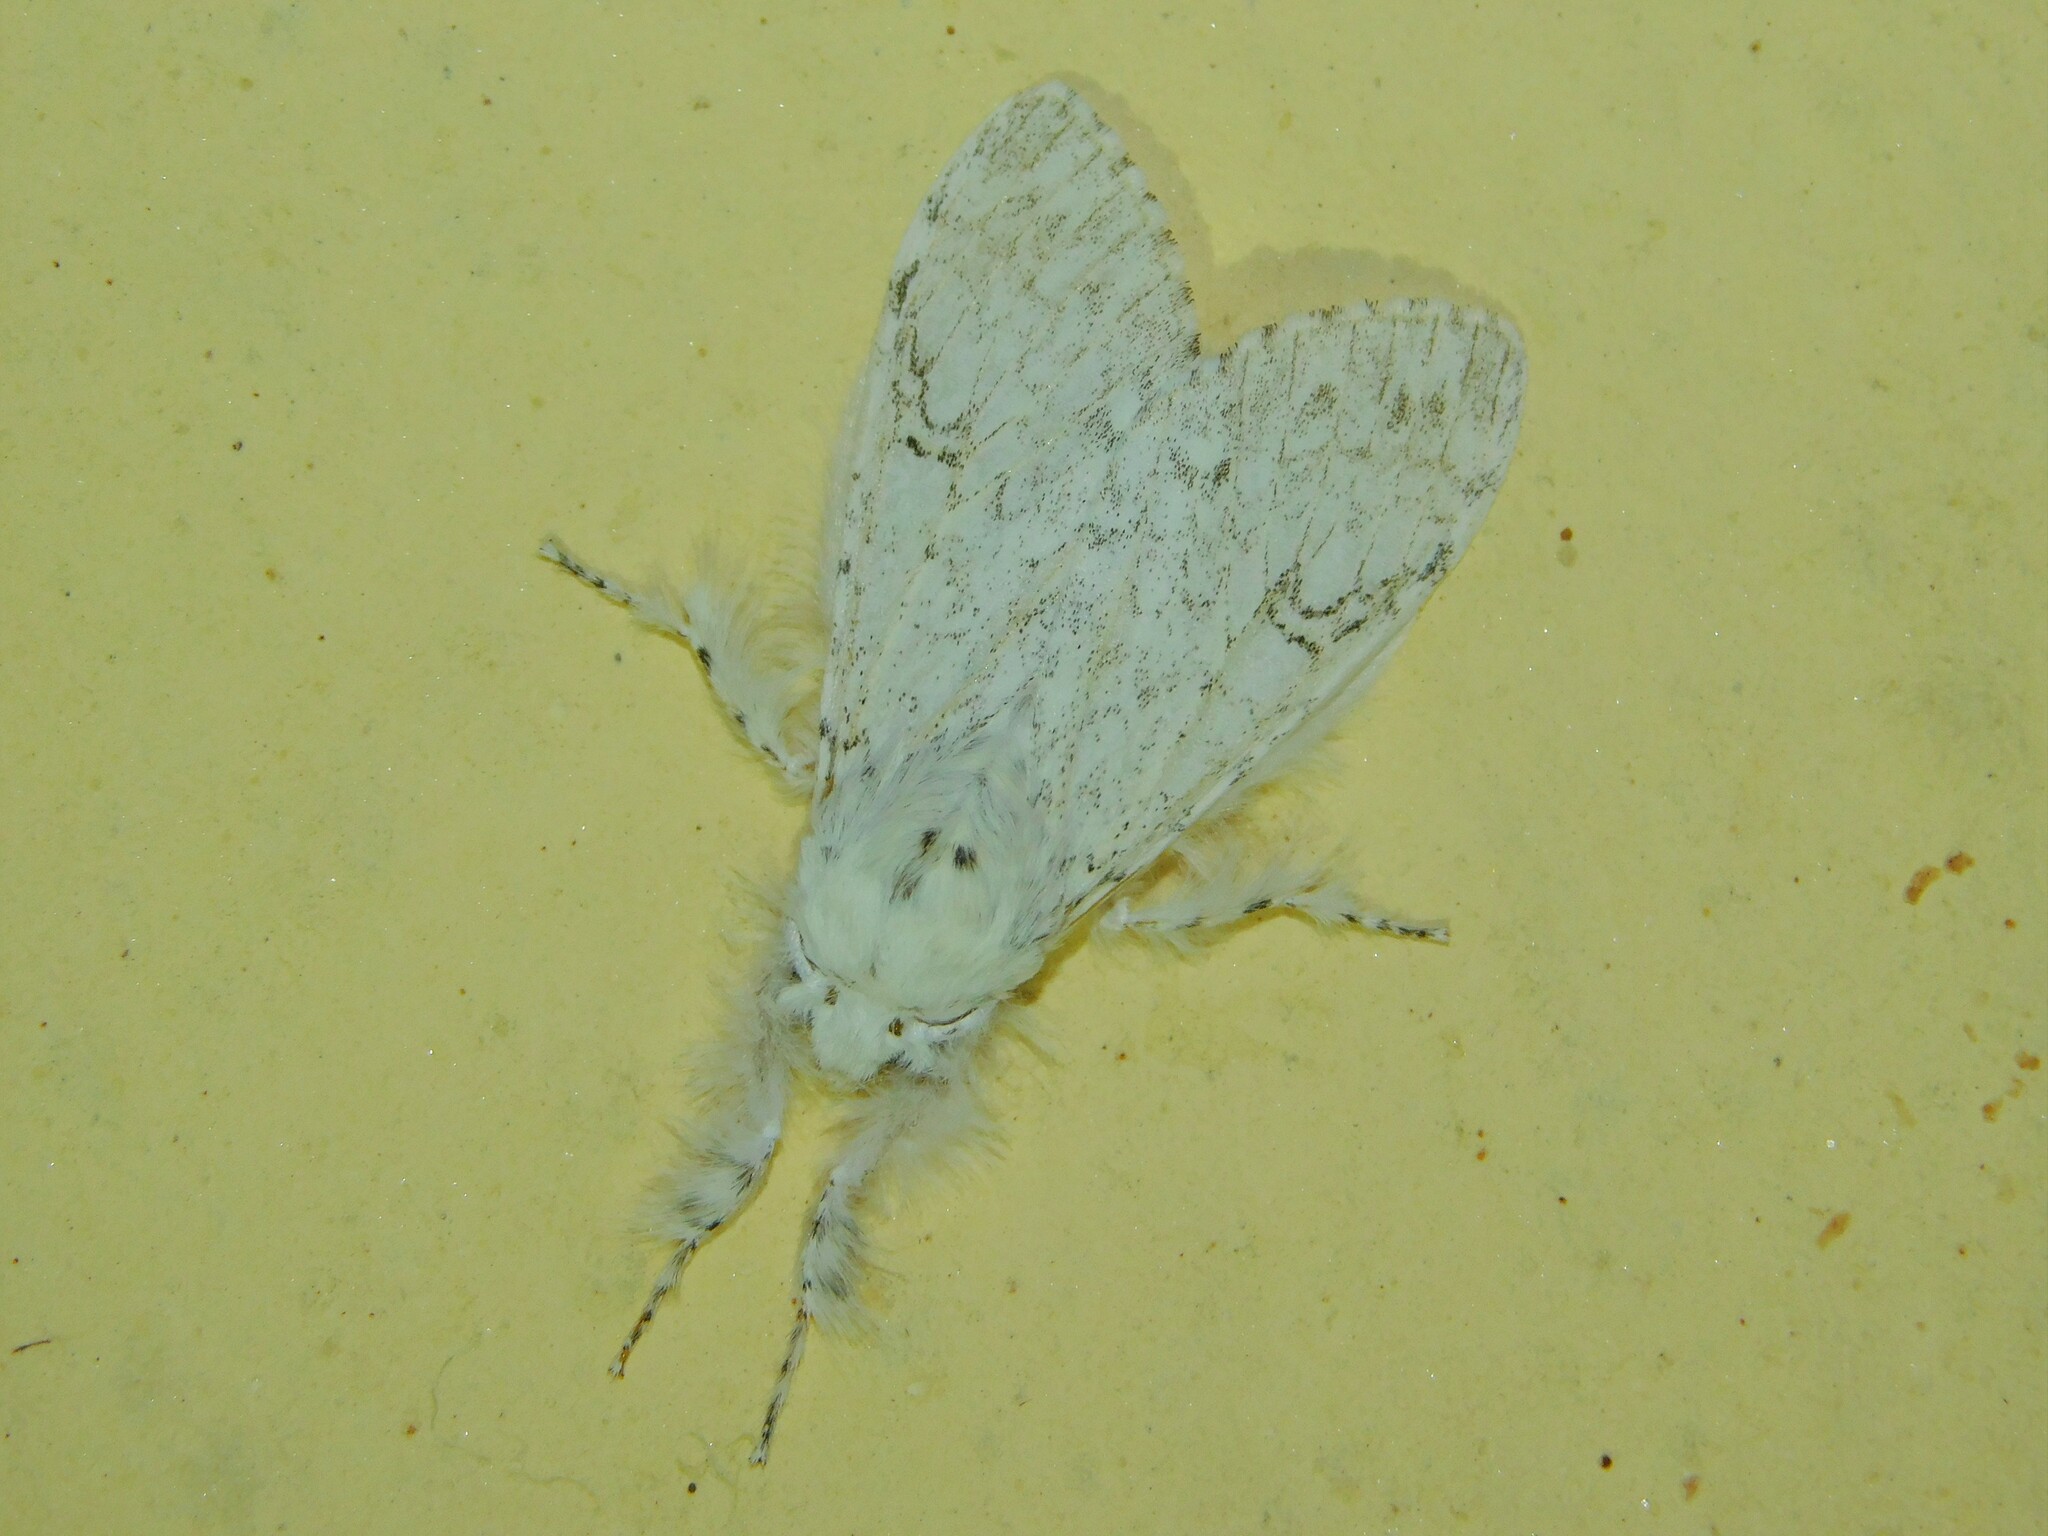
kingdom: Animalia
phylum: Arthropoda
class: Insecta
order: Lepidoptera
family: Erebidae
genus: Dasychira
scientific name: Dasychira georgiana
